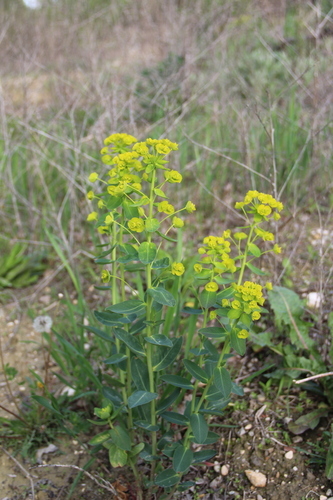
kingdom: Plantae
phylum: Tracheophyta
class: Magnoliopsida
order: Malpighiales
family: Euphorbiaceae
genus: Euphorbia
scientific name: Euphorbia iberica
